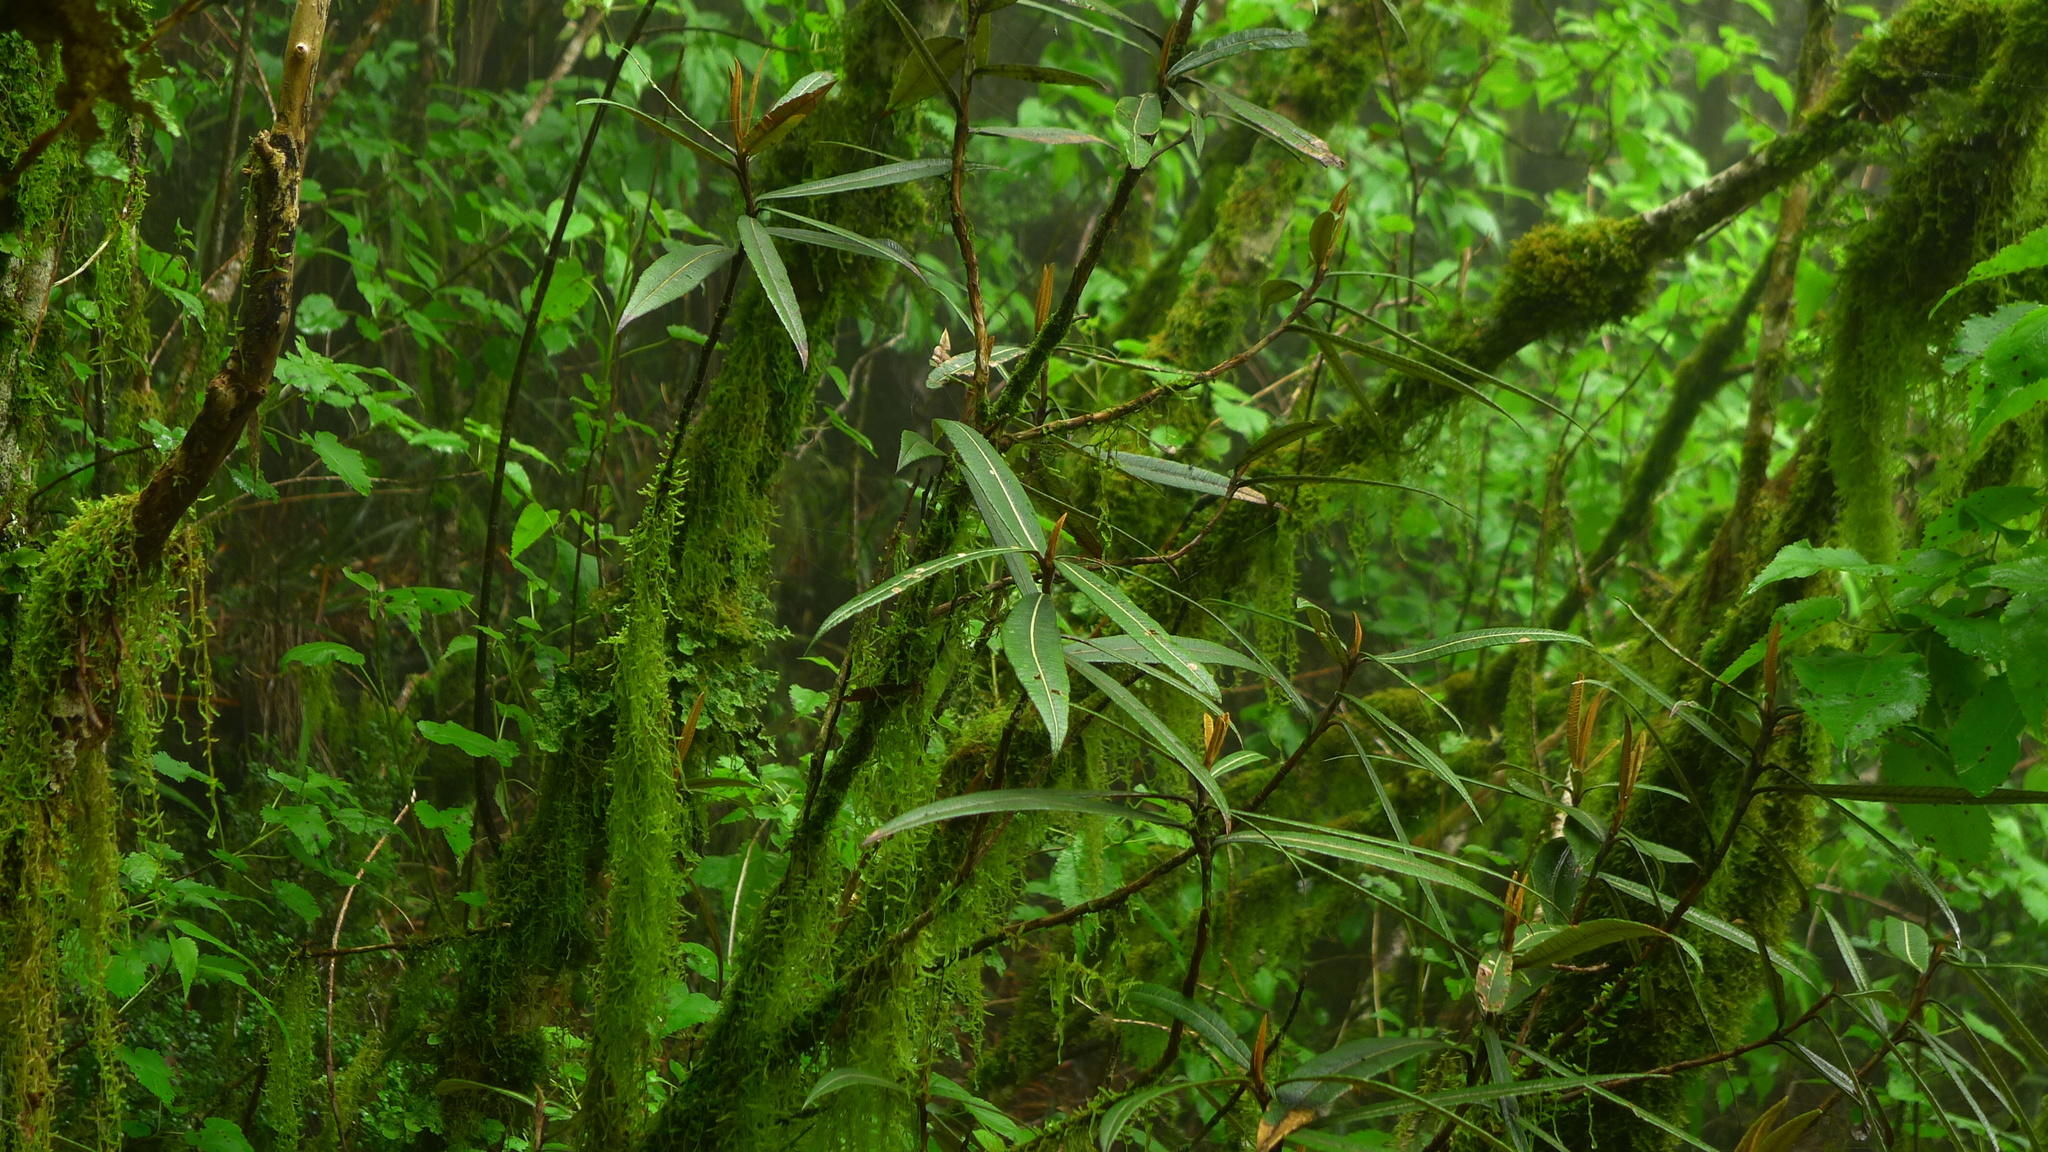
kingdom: Plantae
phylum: Tracheophyta
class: Magnoliopsida
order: Asterales
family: Asteraceae
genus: Olearia
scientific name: Olearia lacunosa
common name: Lancewood tree daisy
